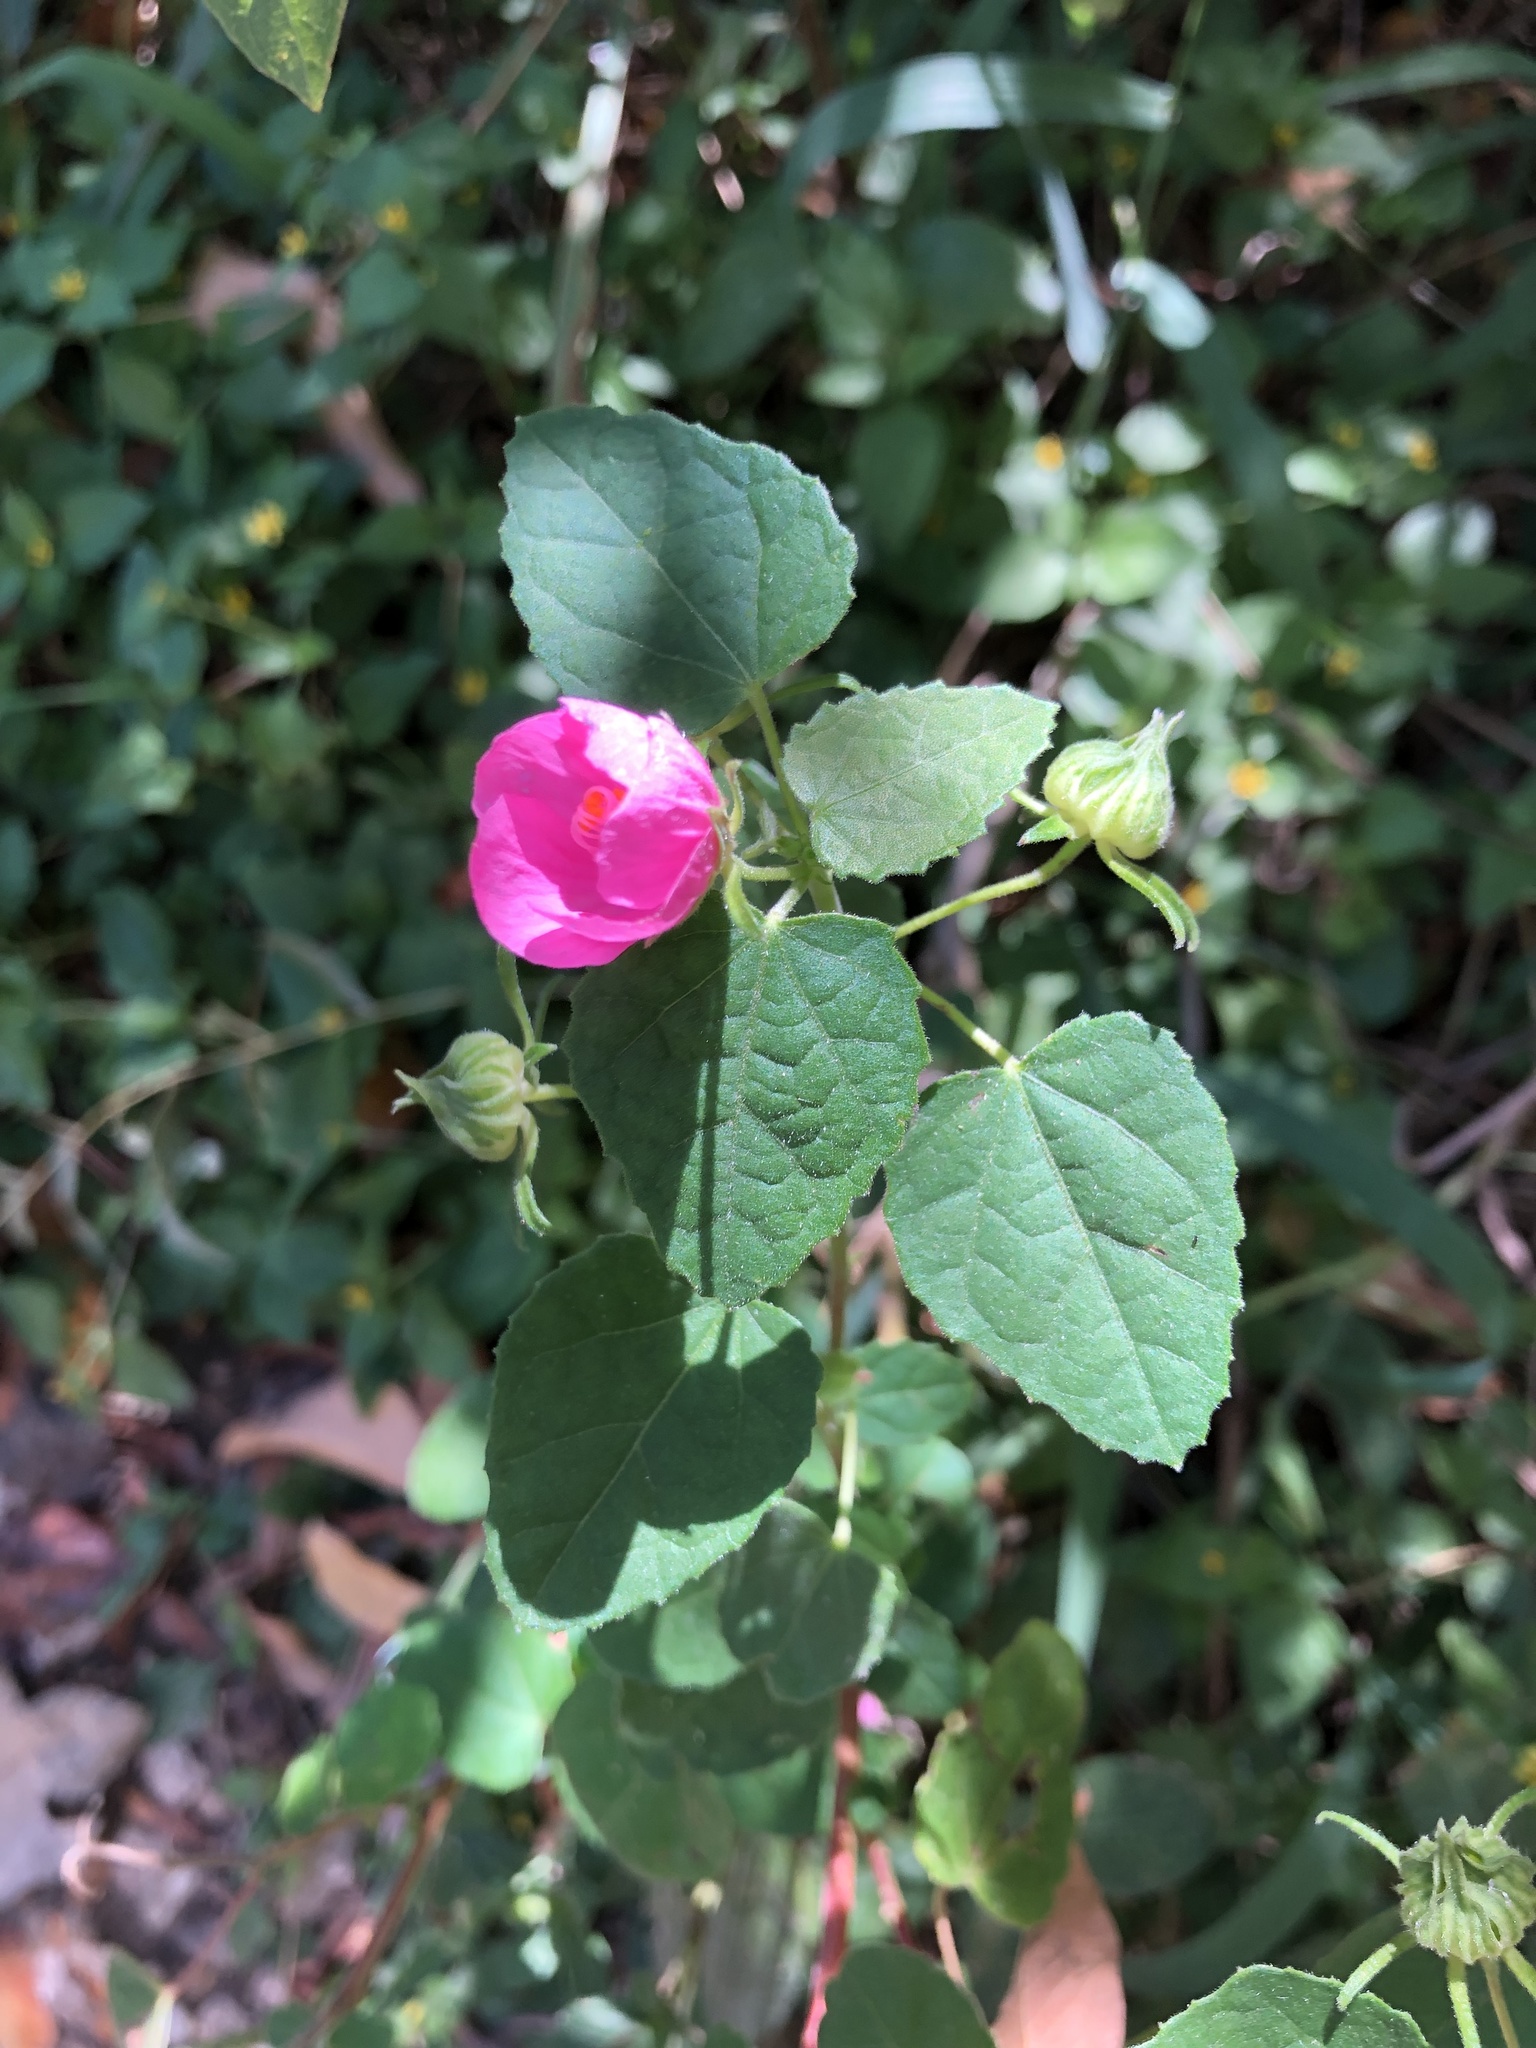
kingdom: Plantae
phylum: Tracheophyta
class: Magnoliopsida
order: Malvales
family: Malvaceae
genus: Pavonia
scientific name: Pavonia lasiopetala
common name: Texas swamp-mallow
